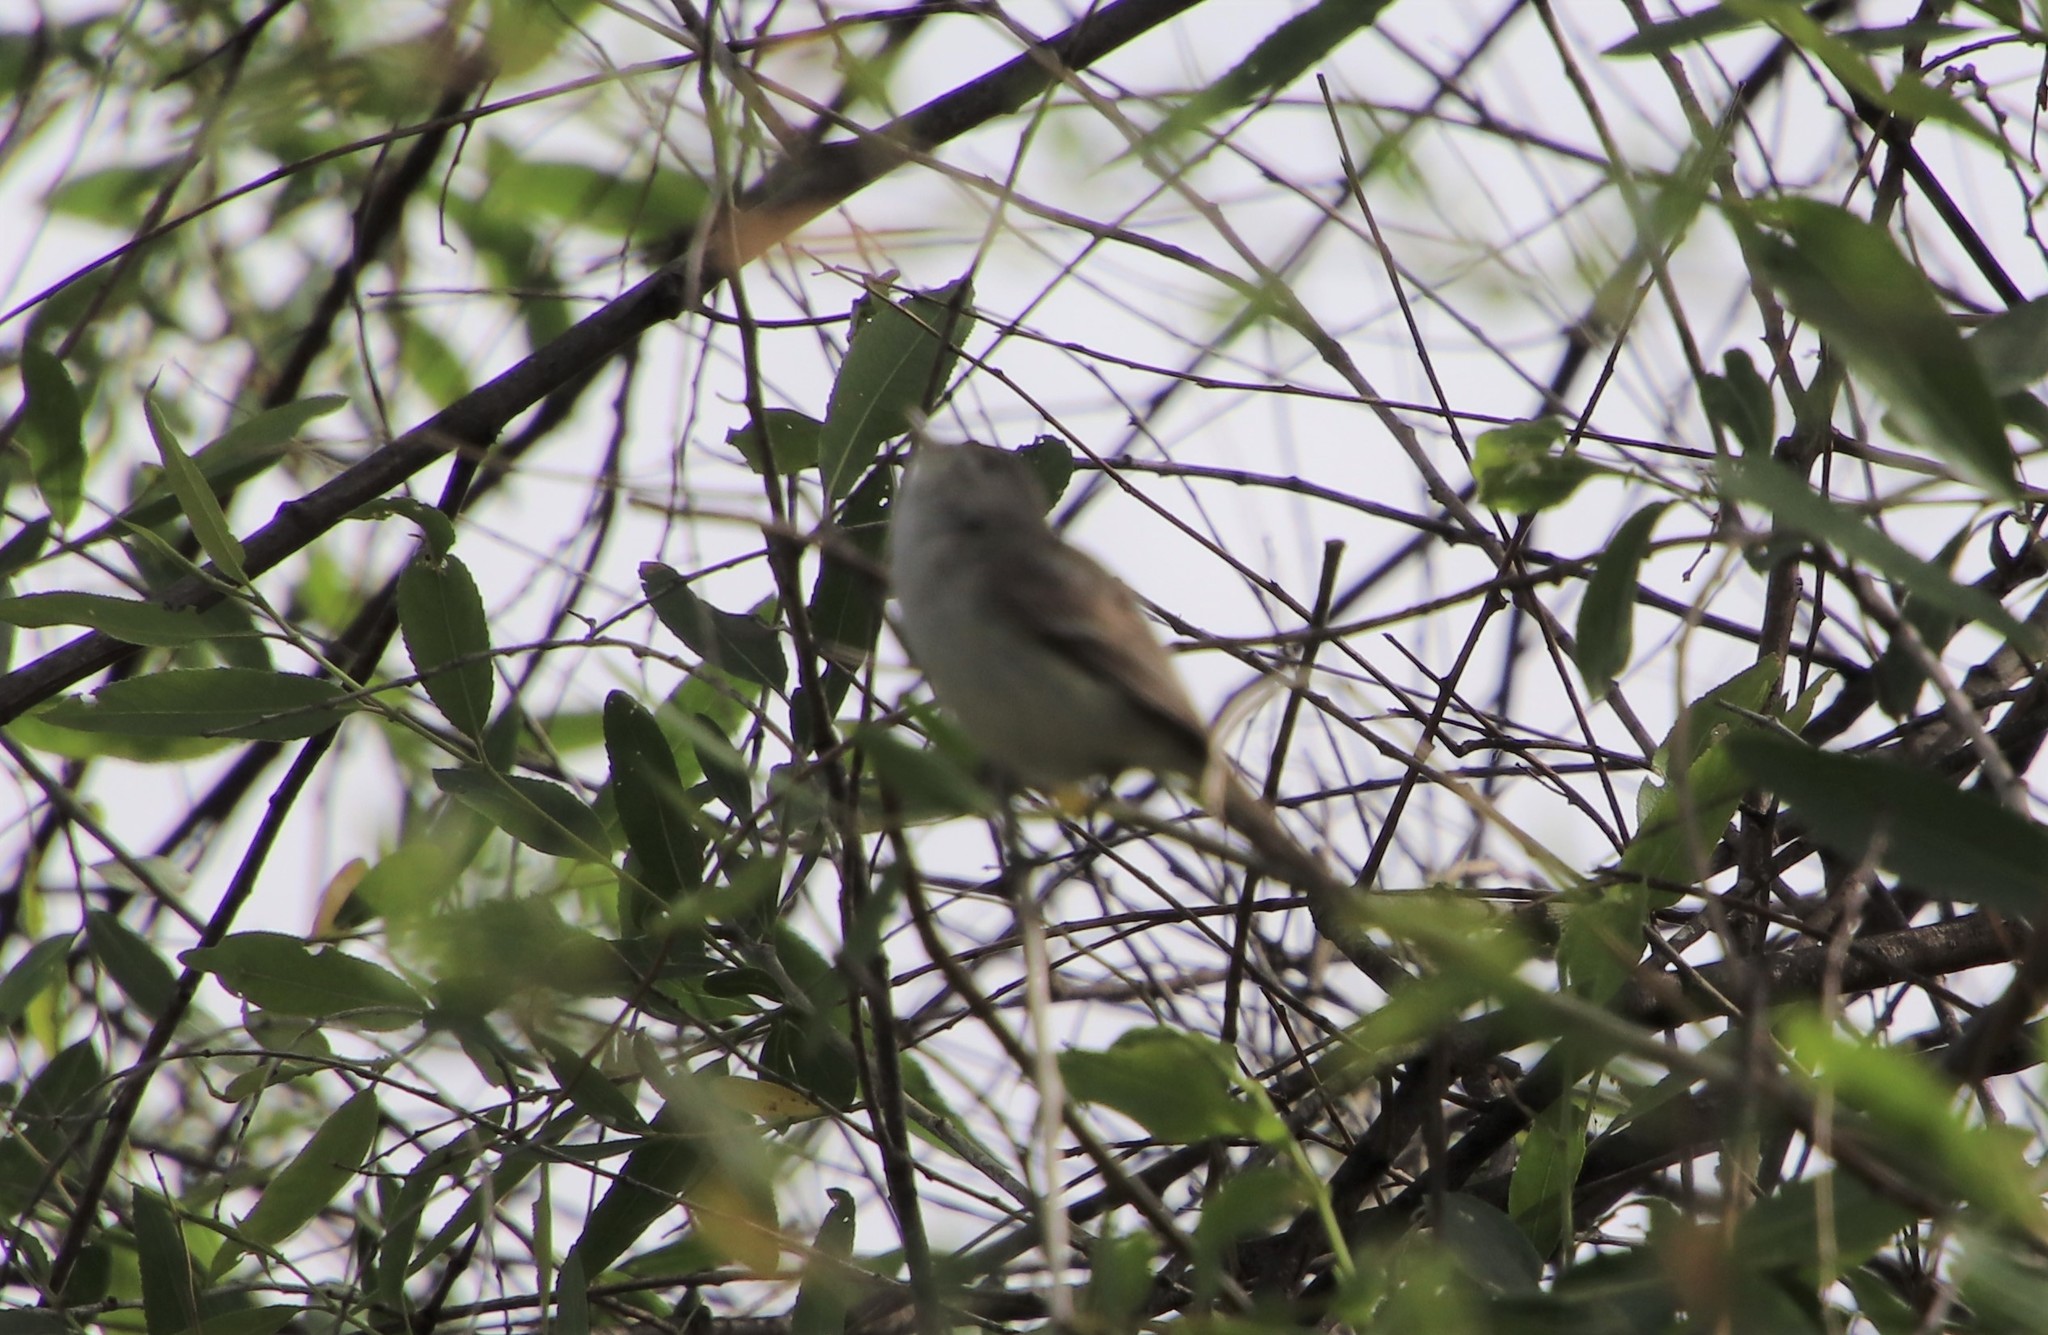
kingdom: Animalia
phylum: Chordata
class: Aves
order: Passeriformes
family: Vireonidae
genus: Vireo
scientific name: Vireo bellii
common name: Bell's vireo
